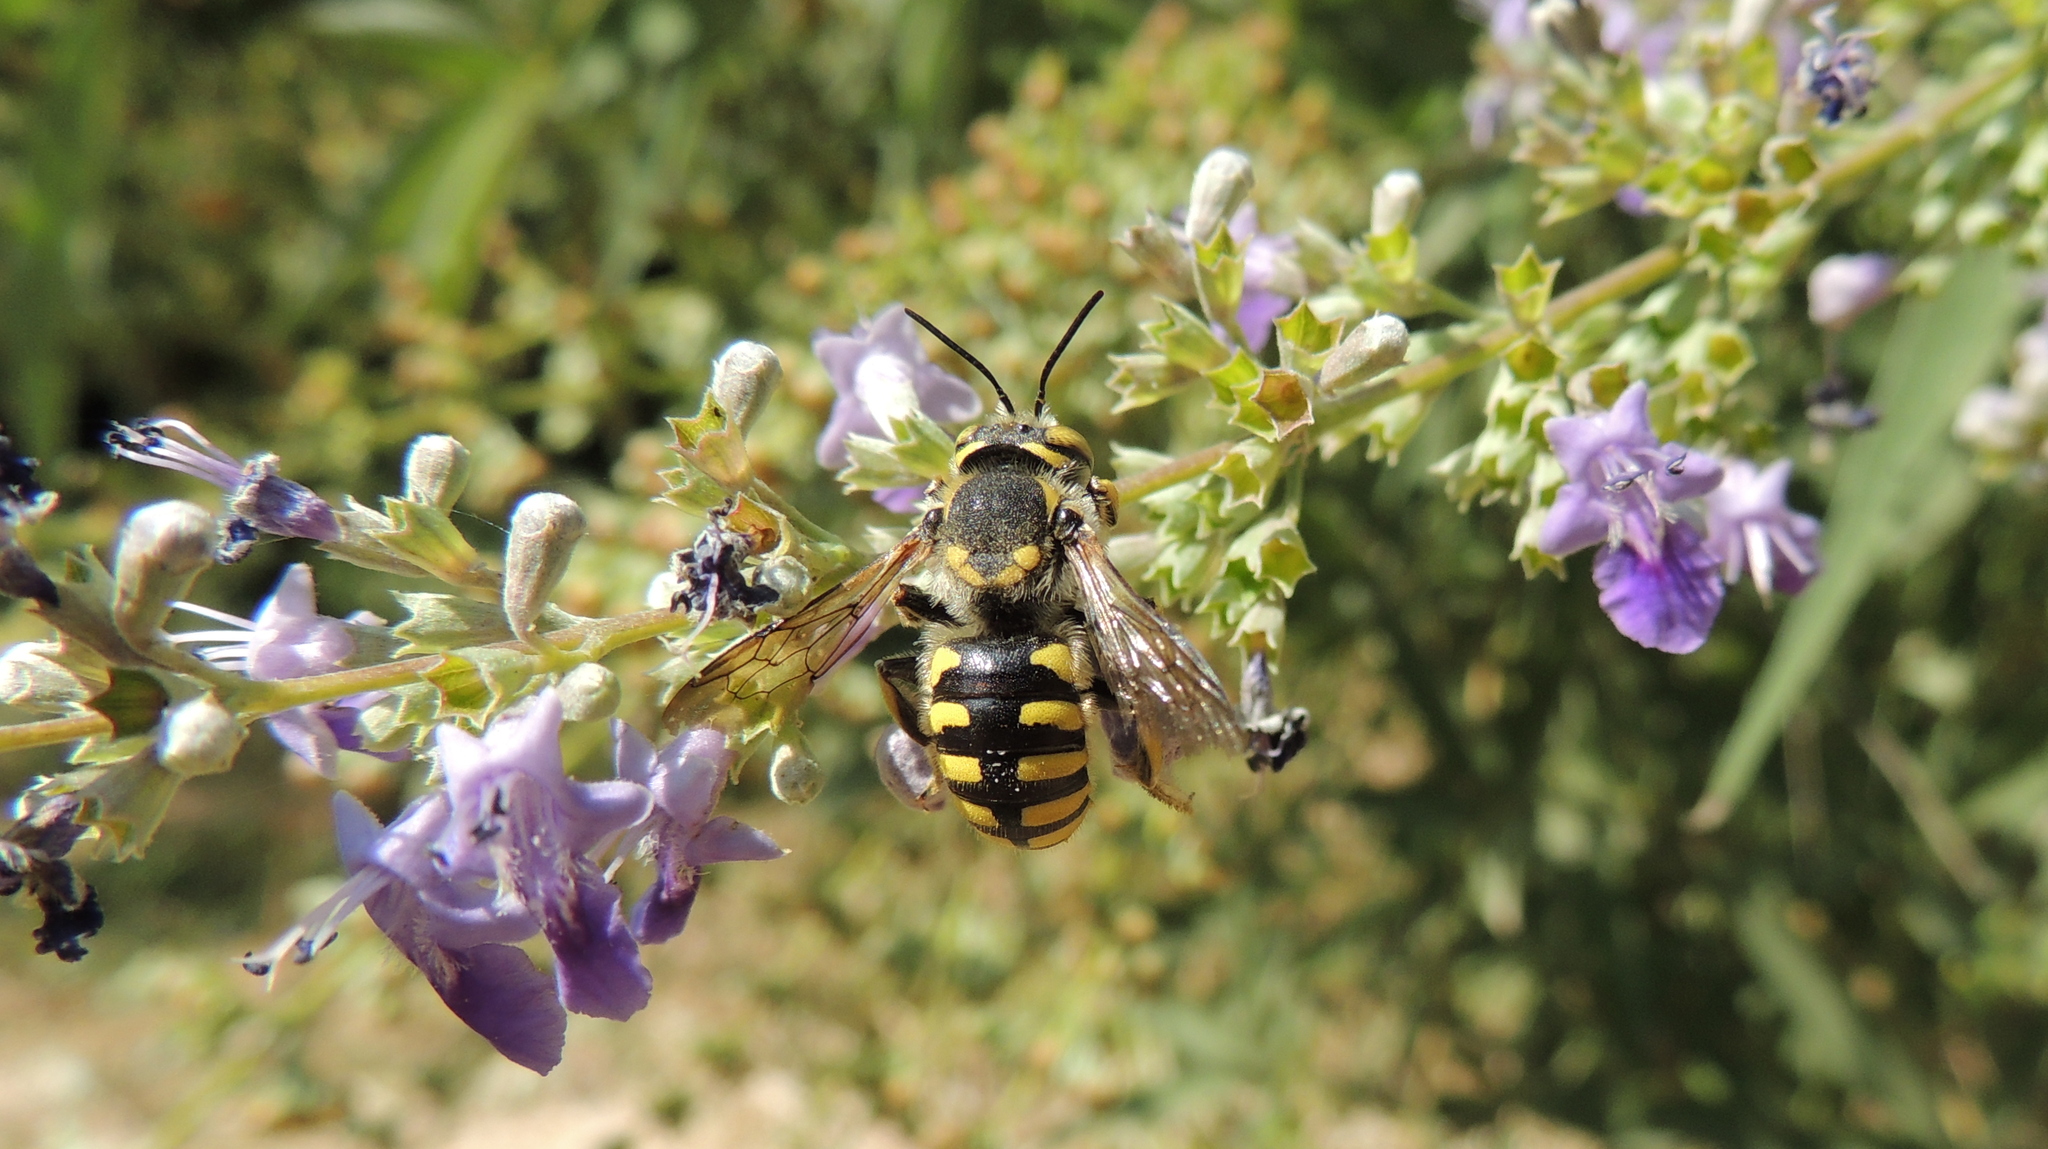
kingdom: Animalia
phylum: Arthropoda
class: Insecta
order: Hymenoptera
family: Megachilidae
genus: Anthidium
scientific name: Anthidium florentinum
